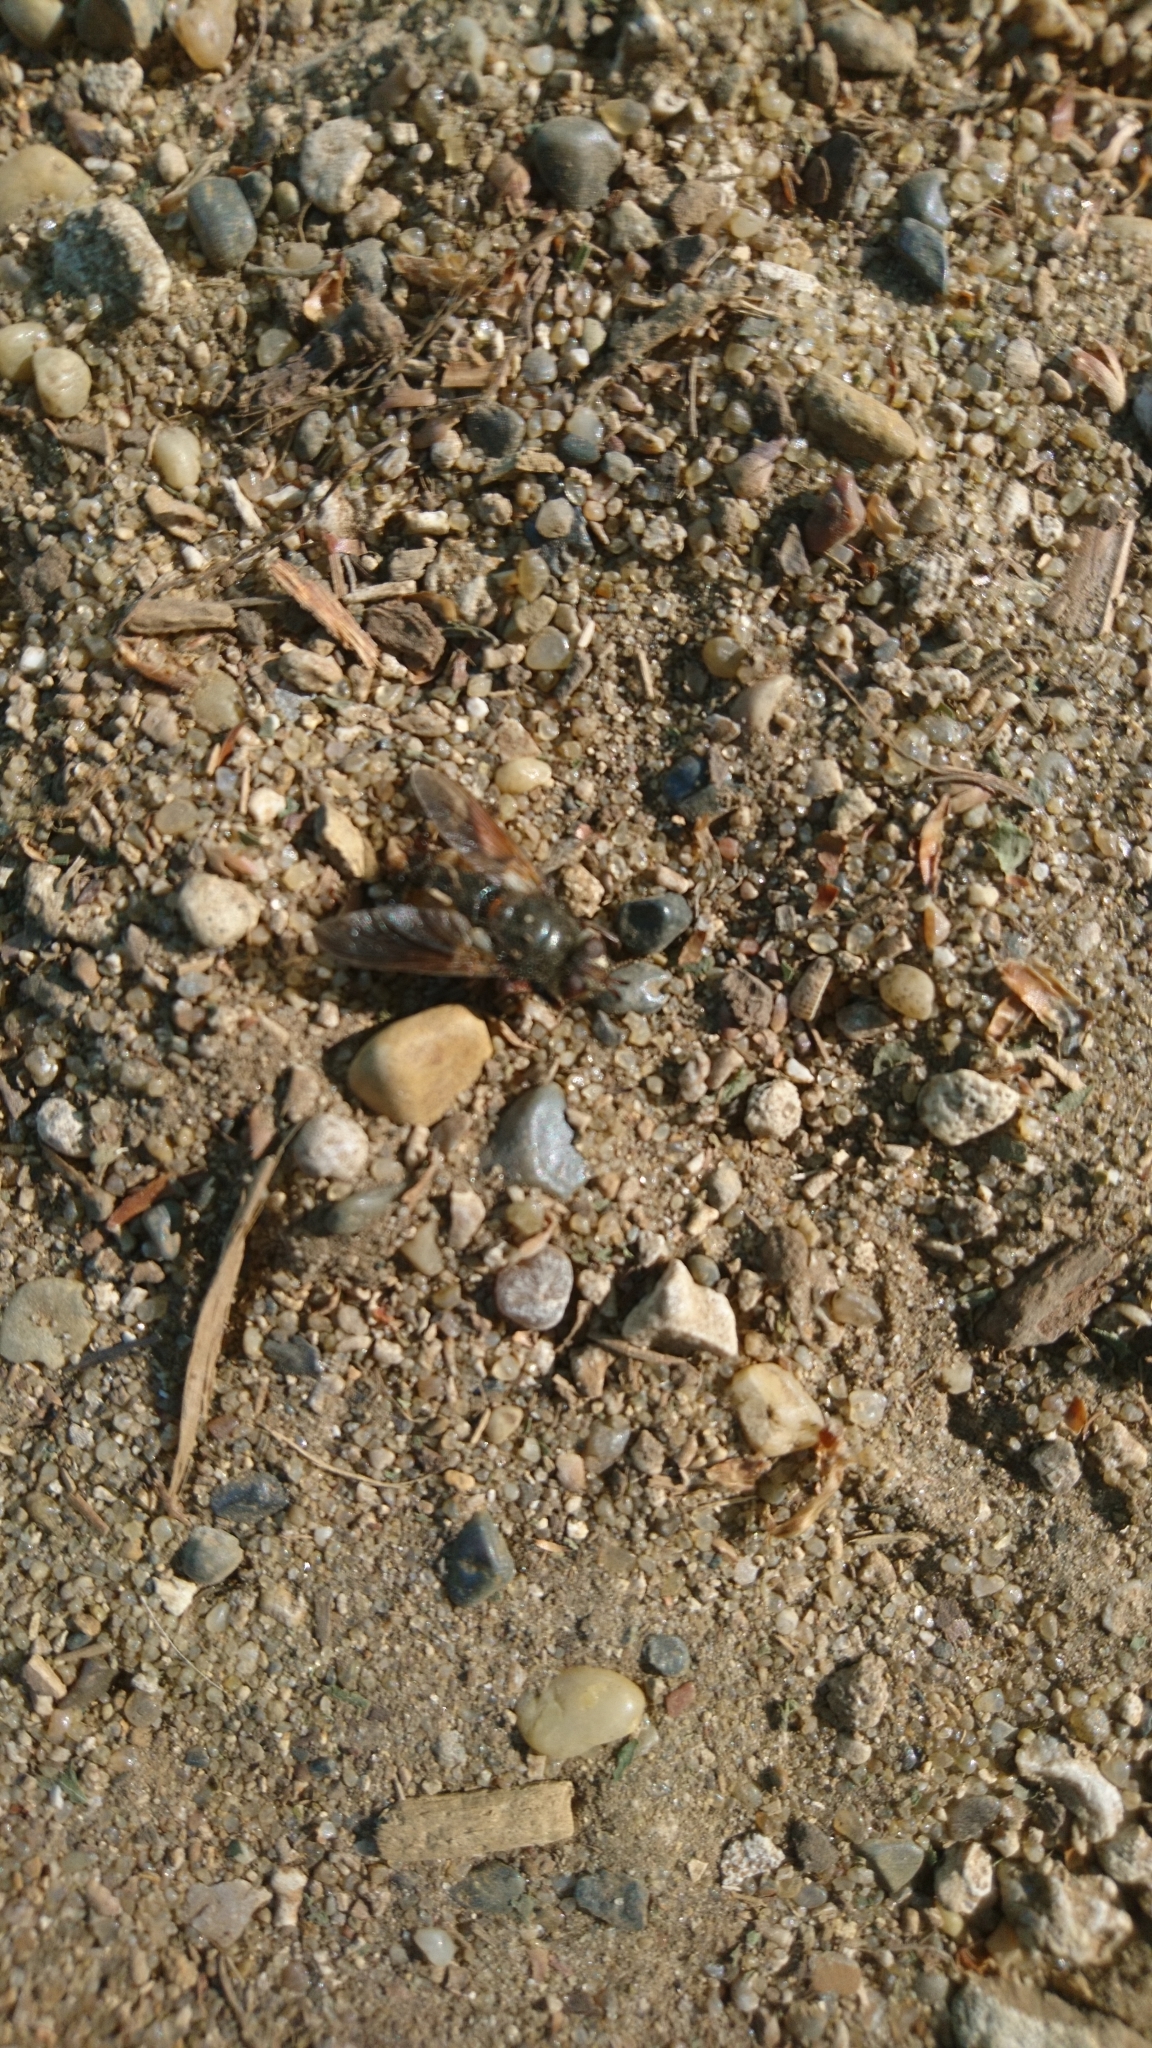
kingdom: Animalia
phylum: Arthropoda
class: Insecta
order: Diptera
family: Tachinidae
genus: Tachina
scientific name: Tachina fera
